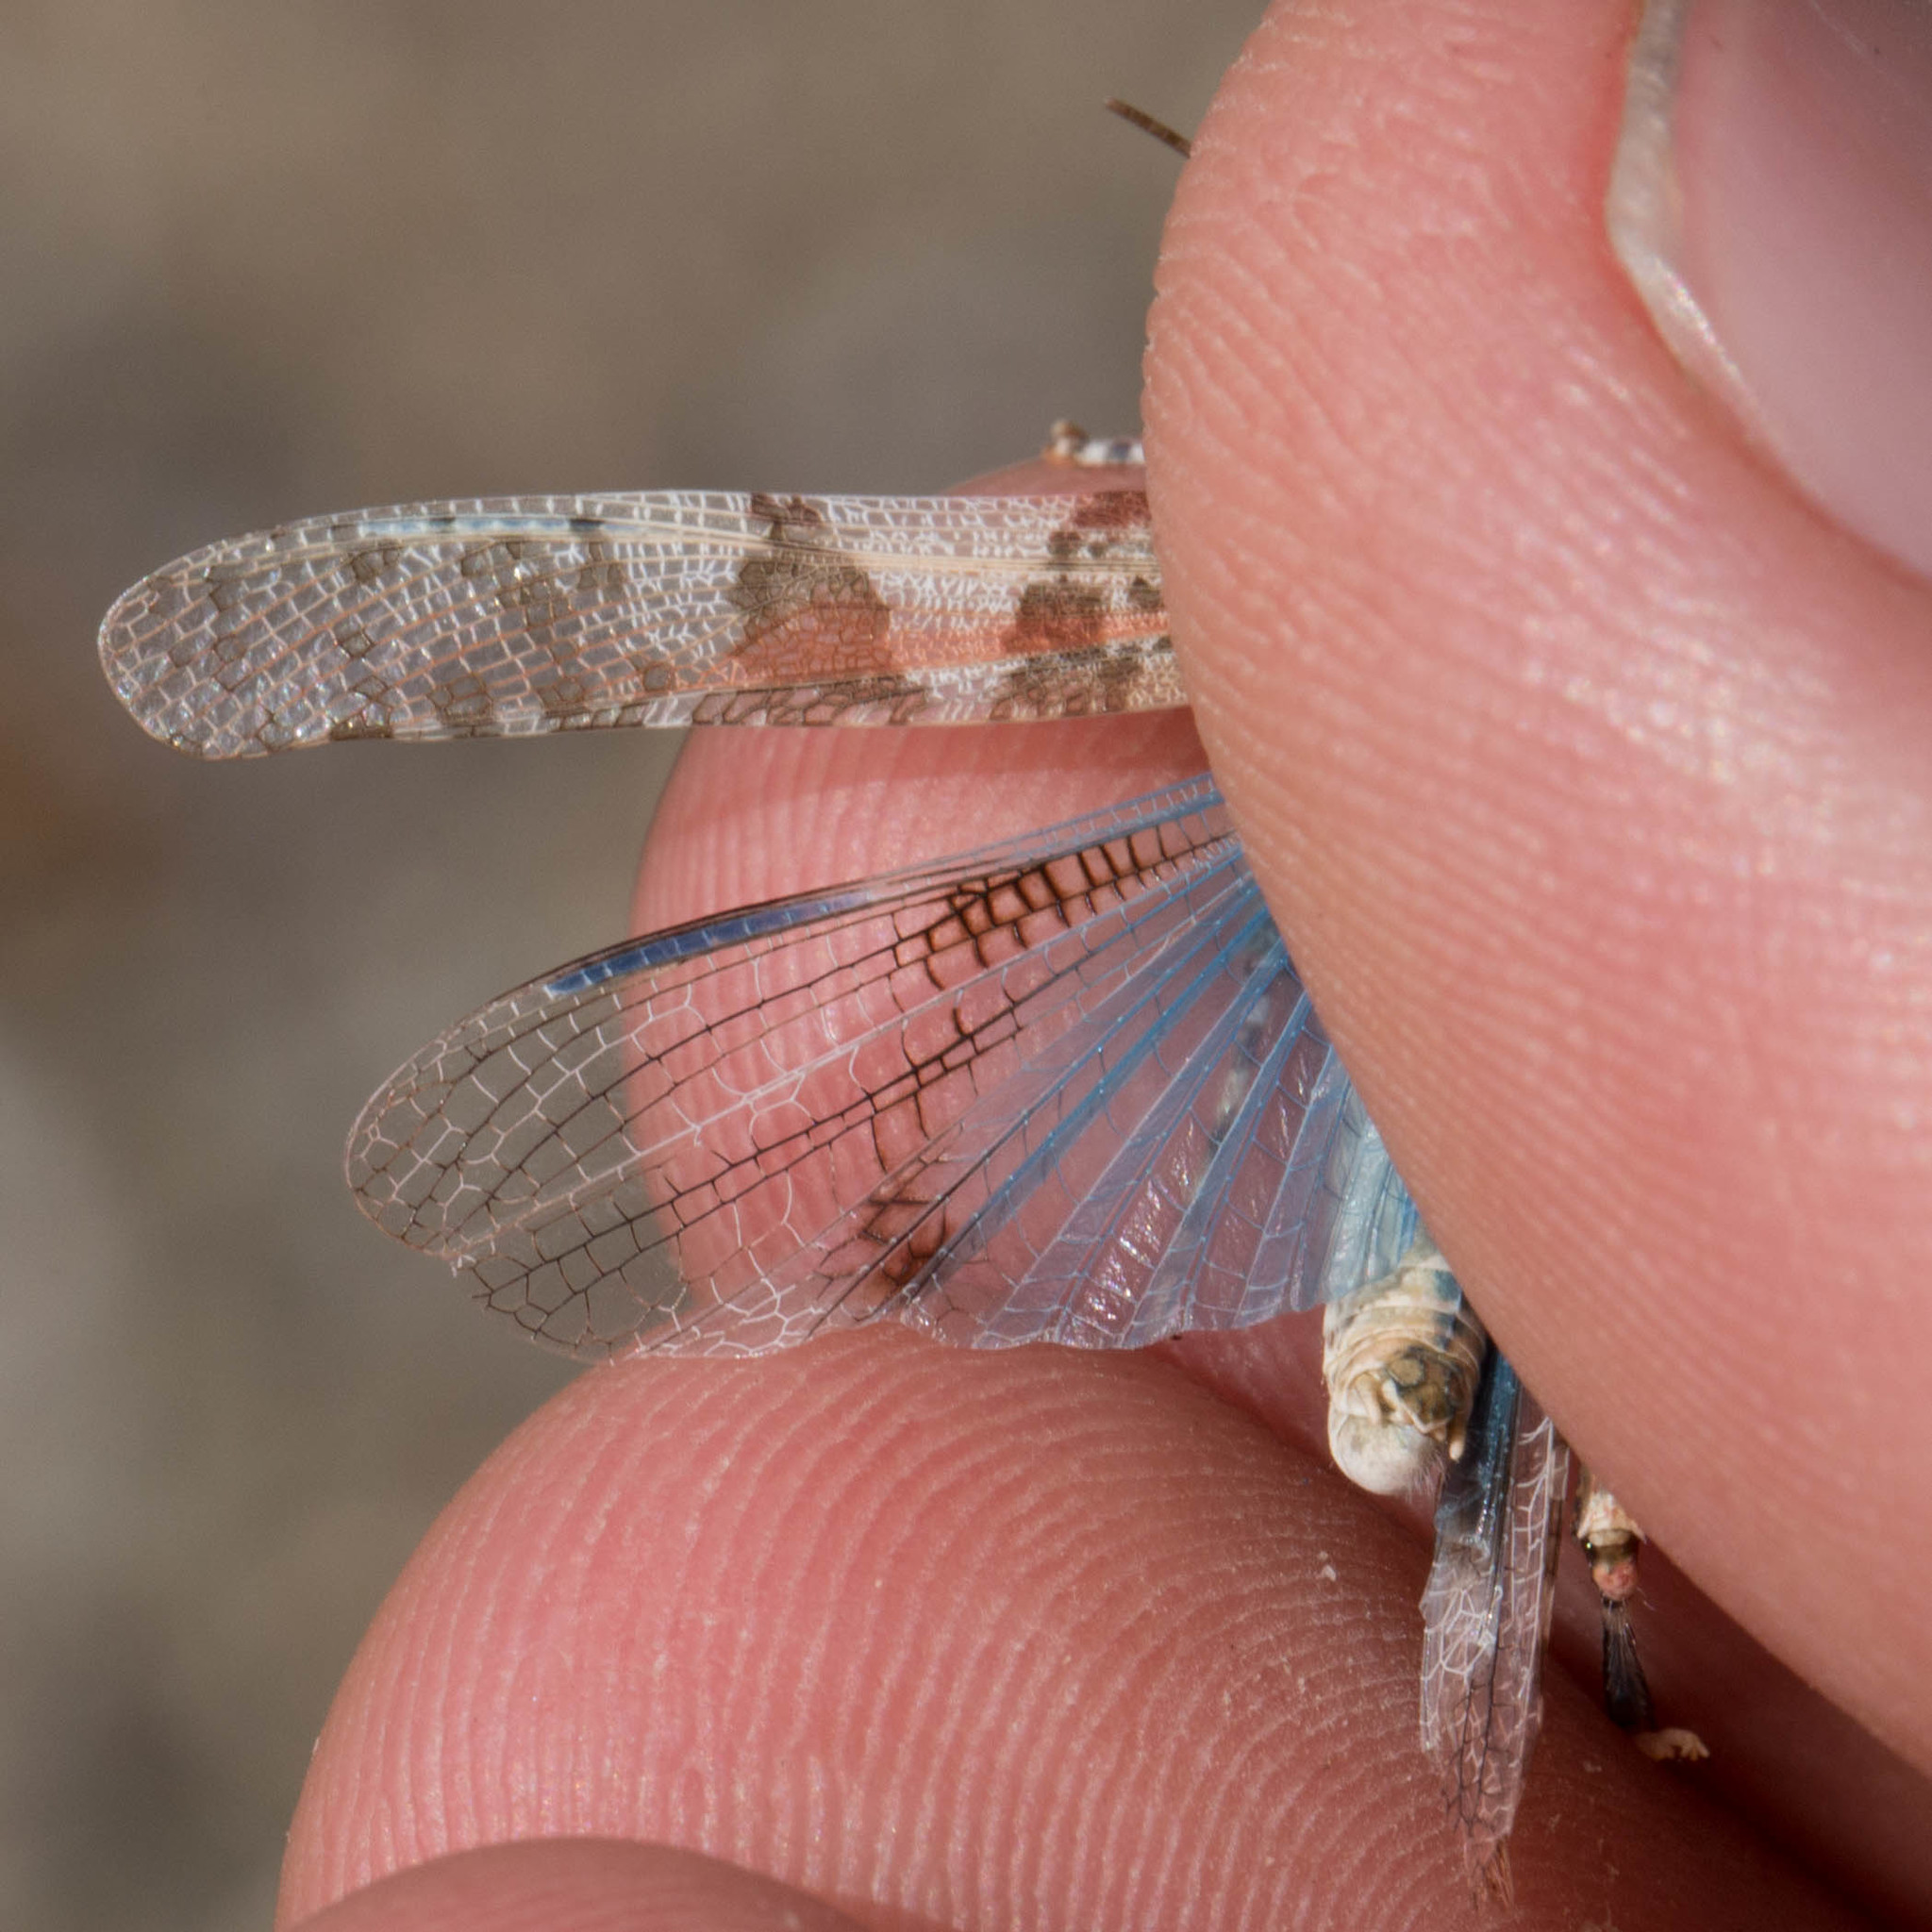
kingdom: Animalia
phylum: Arthropoda
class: Insecta
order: Orthoptera
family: Acrididae
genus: Trimerotropis
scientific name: Trimerotropis pseudofasciata
